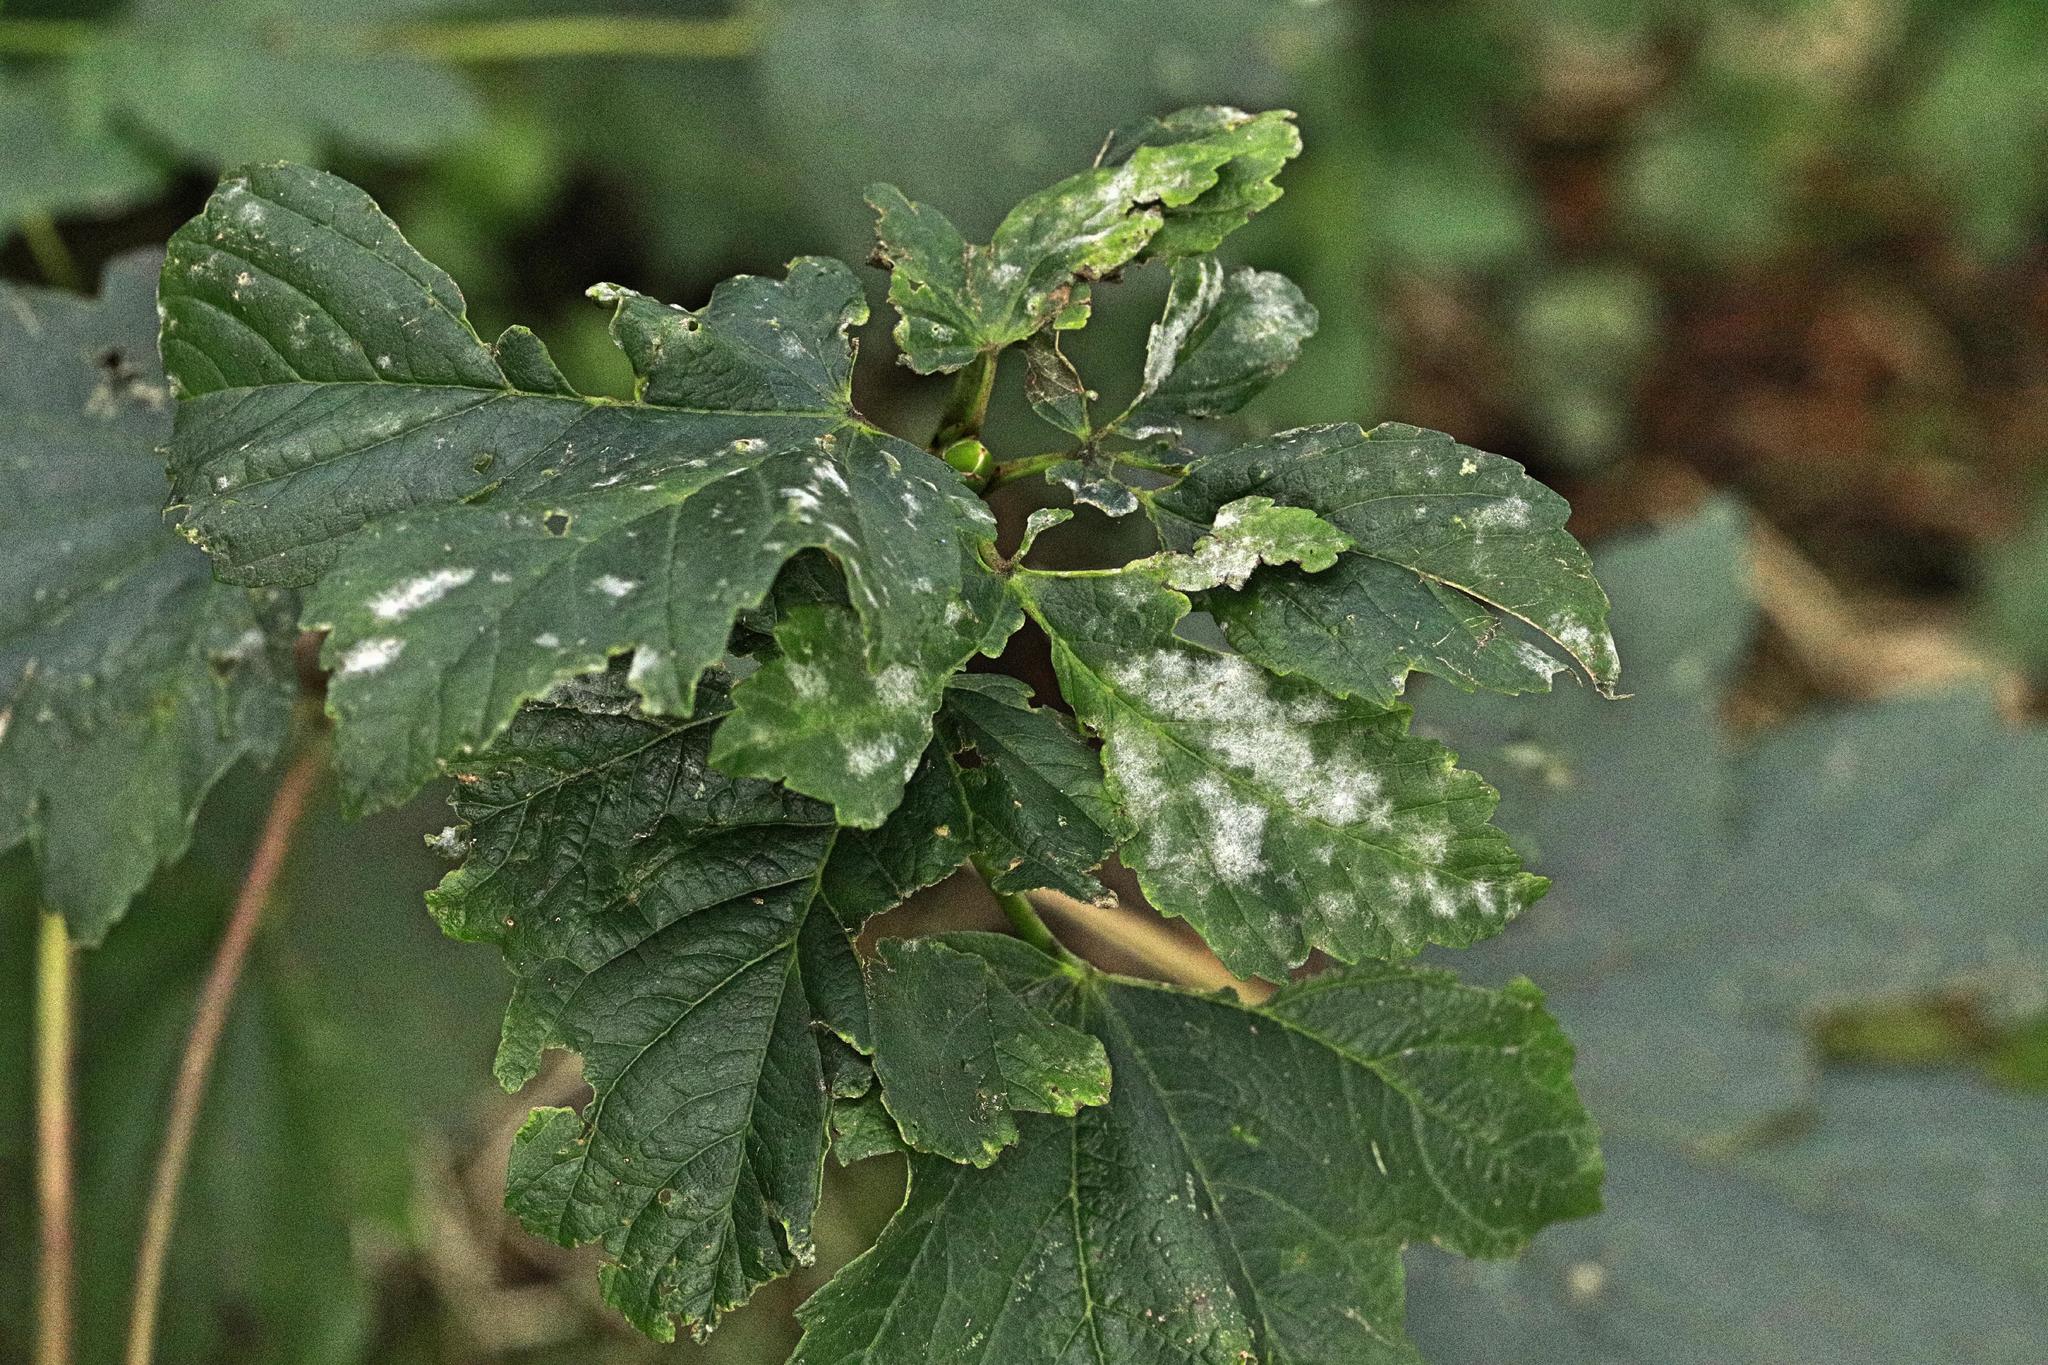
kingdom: Fungi
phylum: Ascomycota
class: Leotiomycetes
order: Helotiales
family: Erysiphaceae
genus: Sawadaea
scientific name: Sawadaea bicornis
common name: Maple mildew
